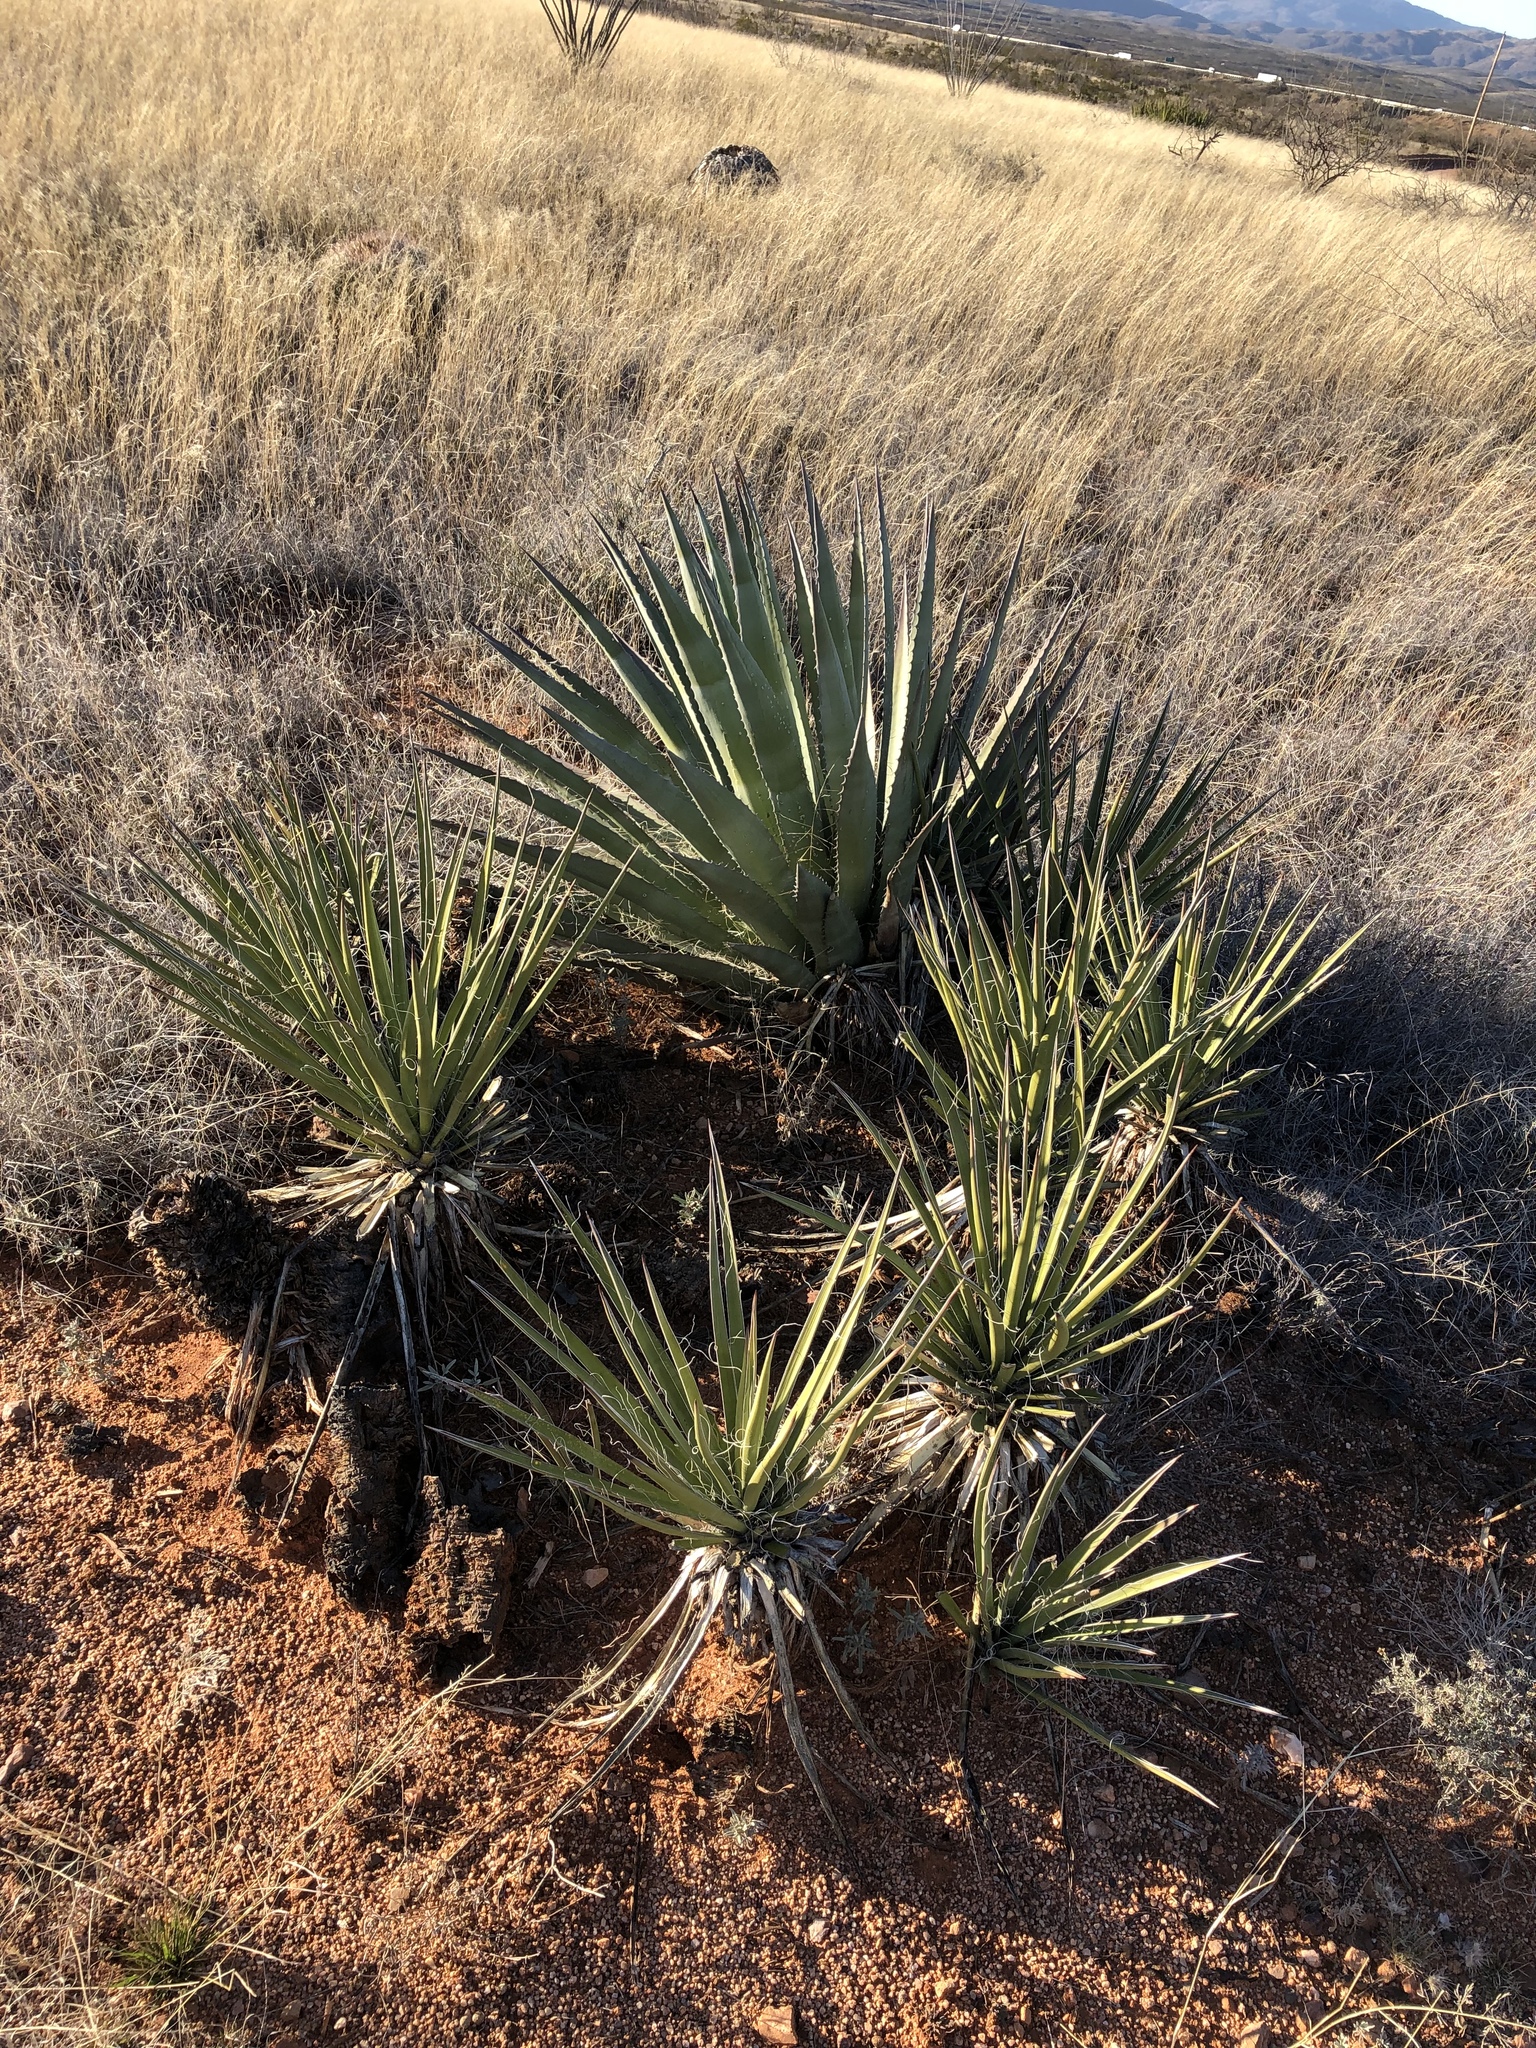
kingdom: Plantae
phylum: Tracheophyta
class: Liliopsida
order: Asparagales
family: Asparagaceae
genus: Agave
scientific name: Agave palmeri
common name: Palmer agave
